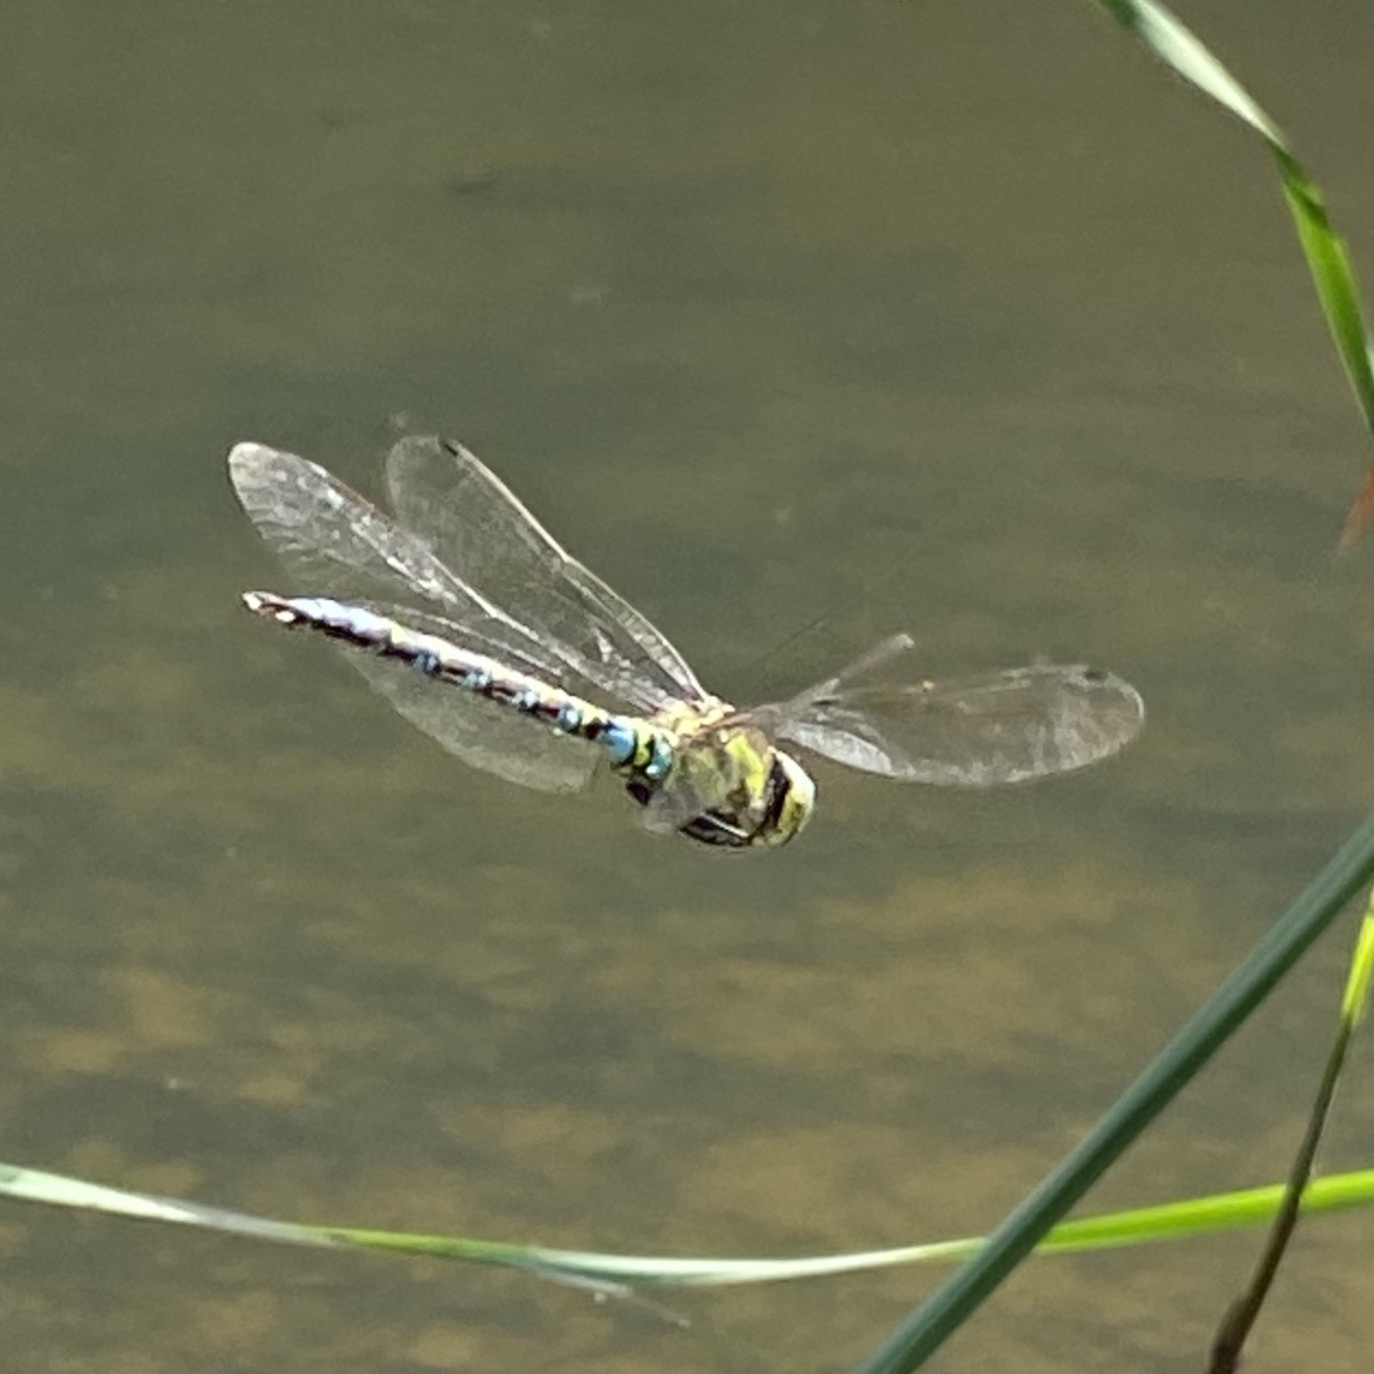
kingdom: Animalia
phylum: Arthropoda
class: Insecta
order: Odonata
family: Aeshnidae
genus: Aeshna
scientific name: Aeshna cyanea
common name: Southern hawker
